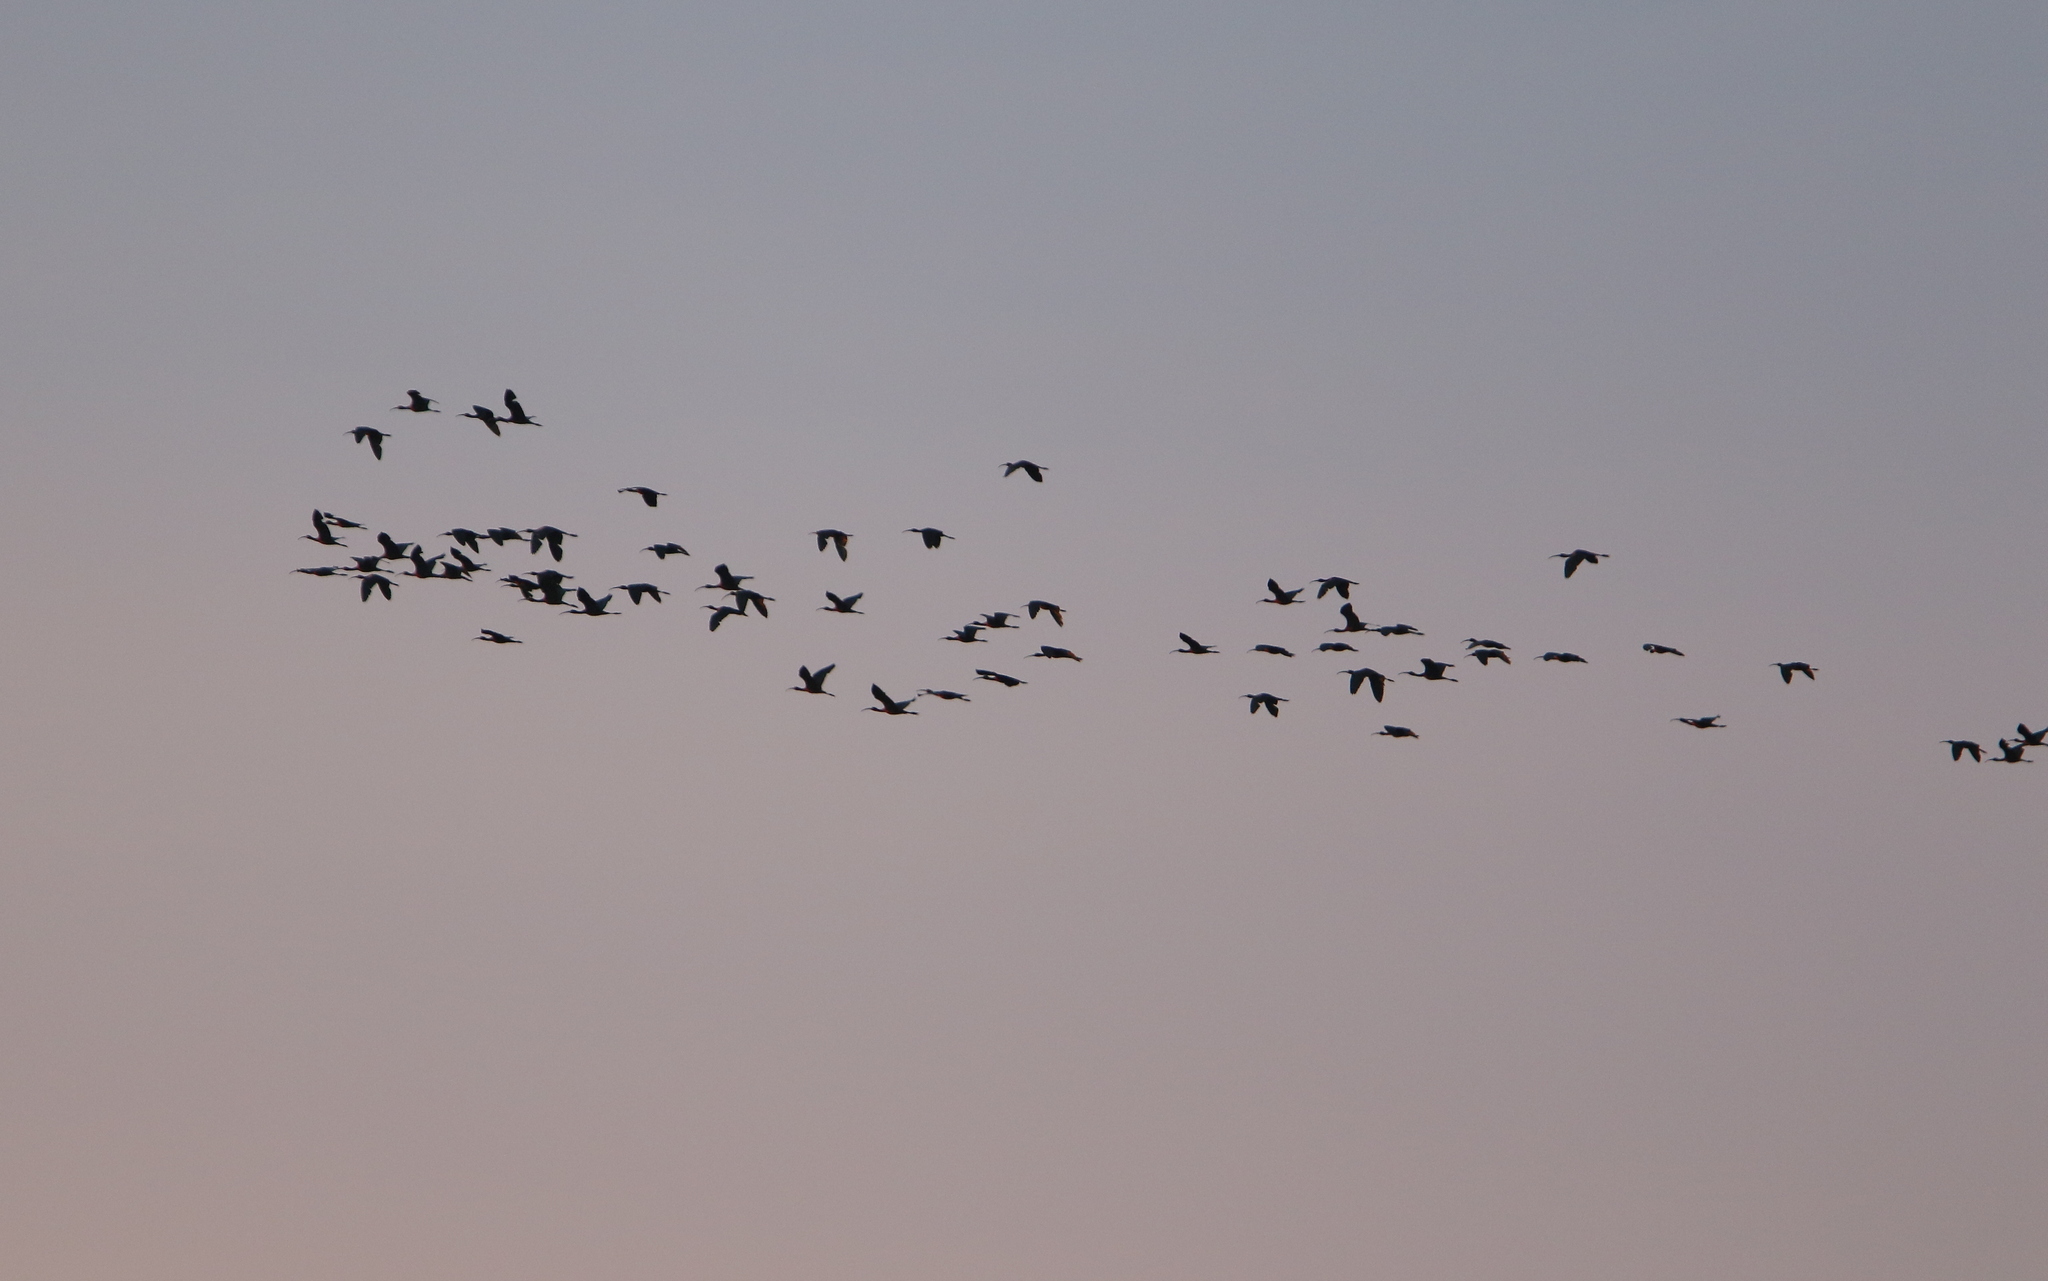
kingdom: Animalia
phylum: Chordata
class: Aves
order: Pelecaniformes
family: Threskiornithidae
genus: Plegadis
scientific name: Plegadis falcinellus
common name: Glossy ibis
